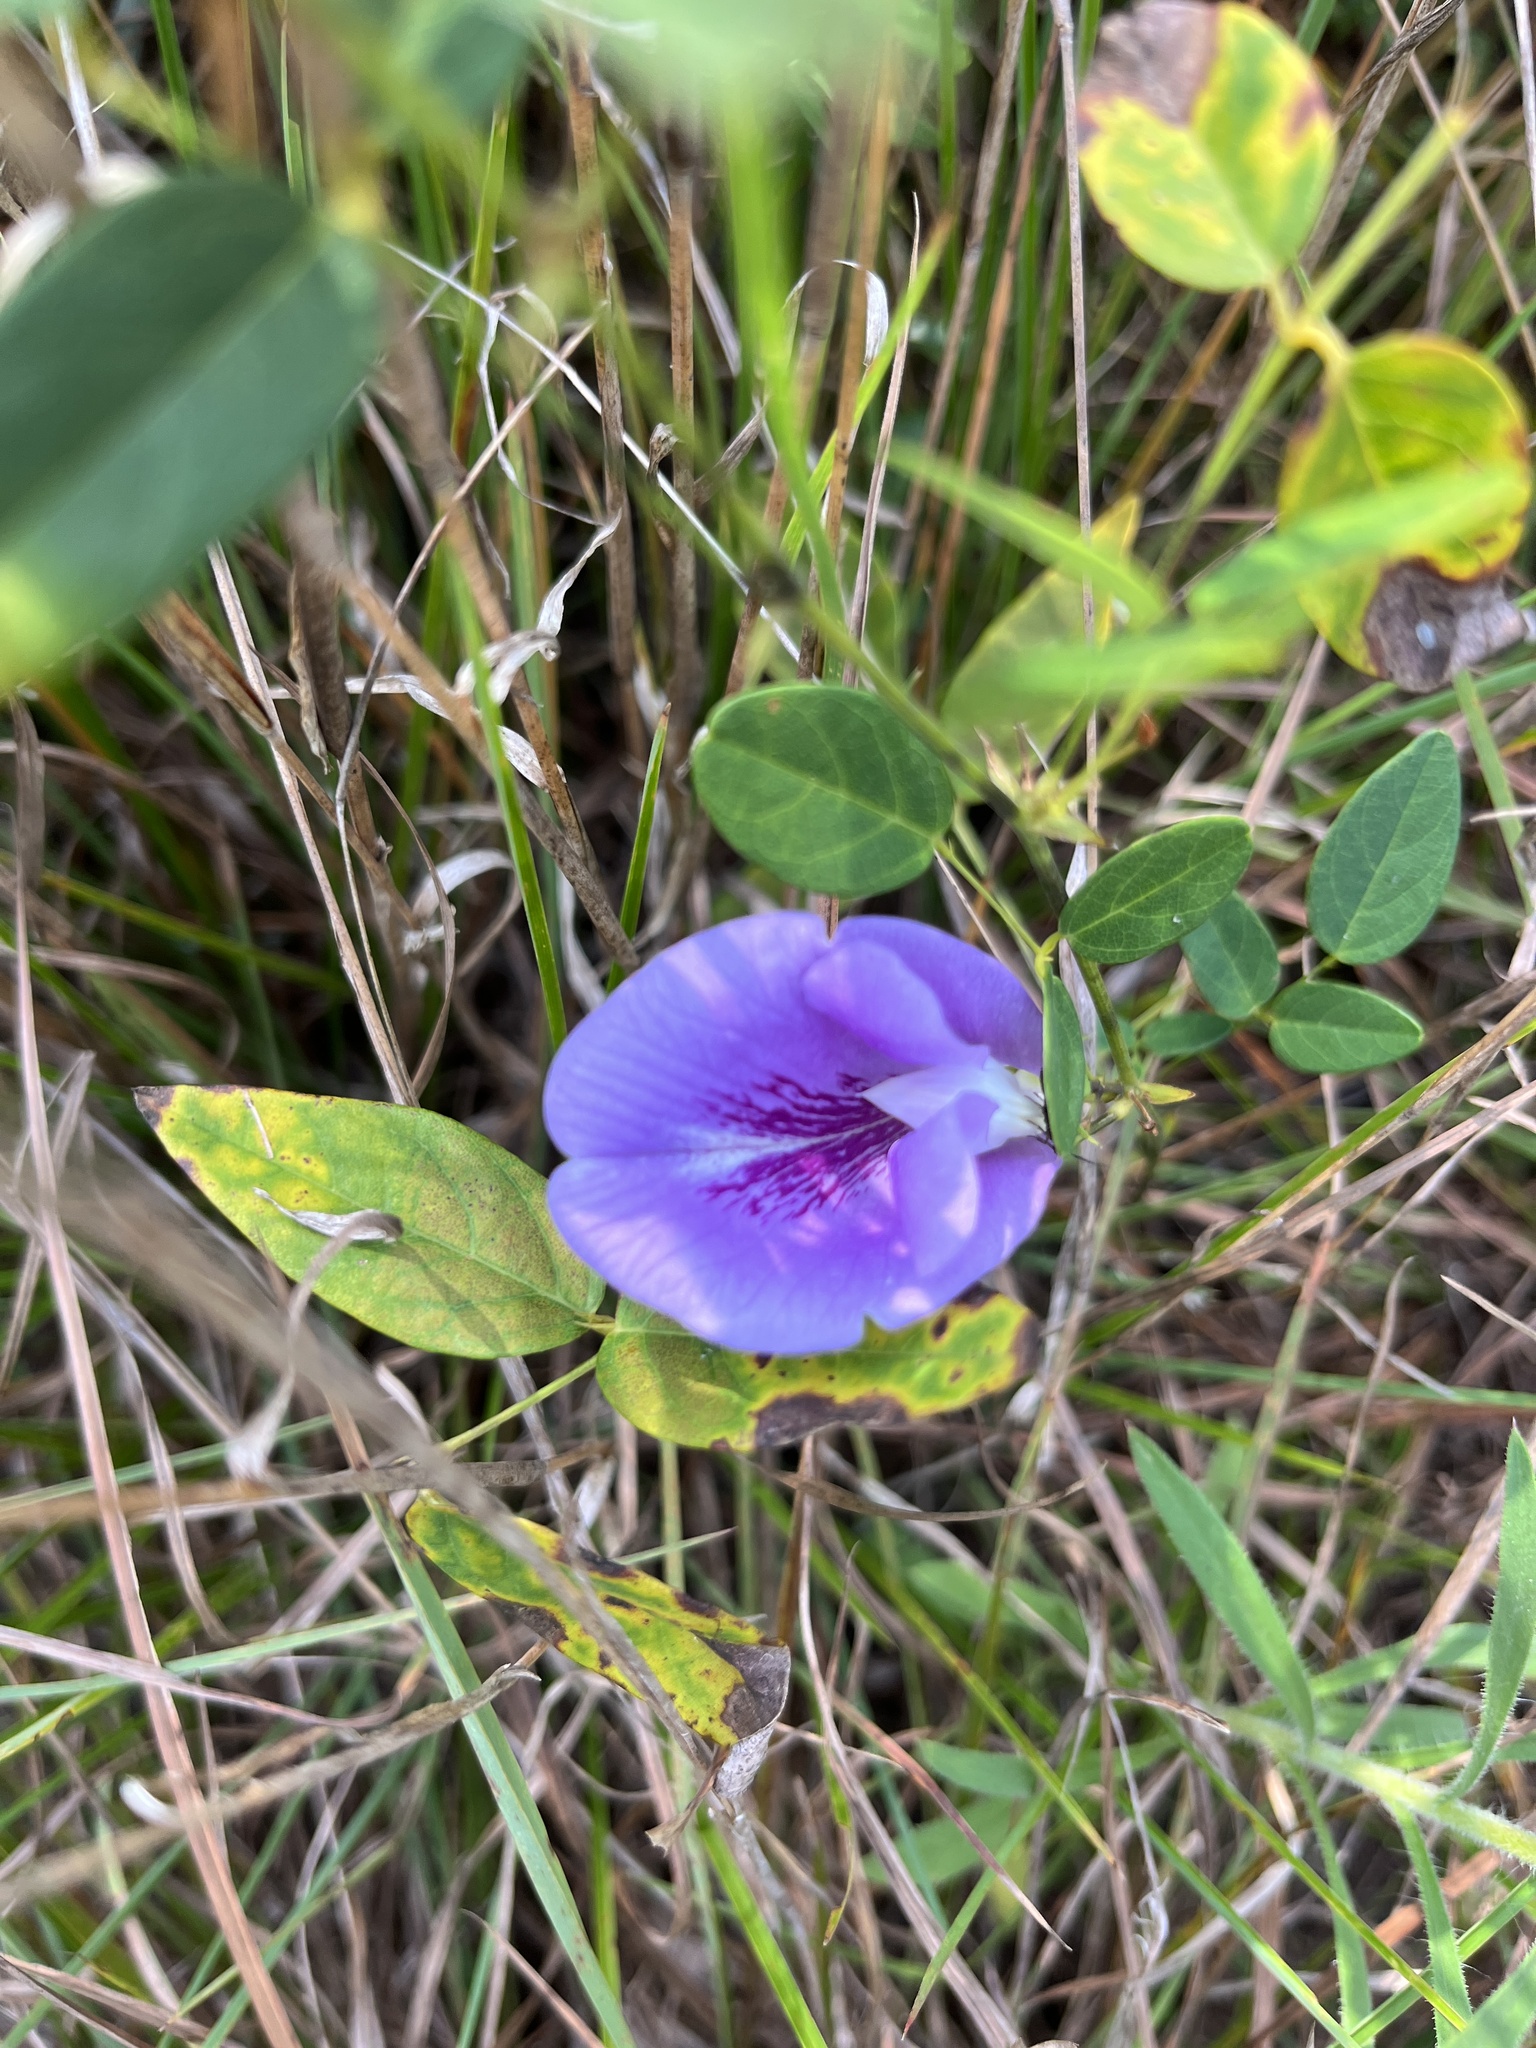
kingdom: Plantae
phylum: Tracheophyta
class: Magnoliopsida
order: Fabales
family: Fabaceae
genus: Clitoria
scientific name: Clitoria mariana
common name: Butterfly-pea
